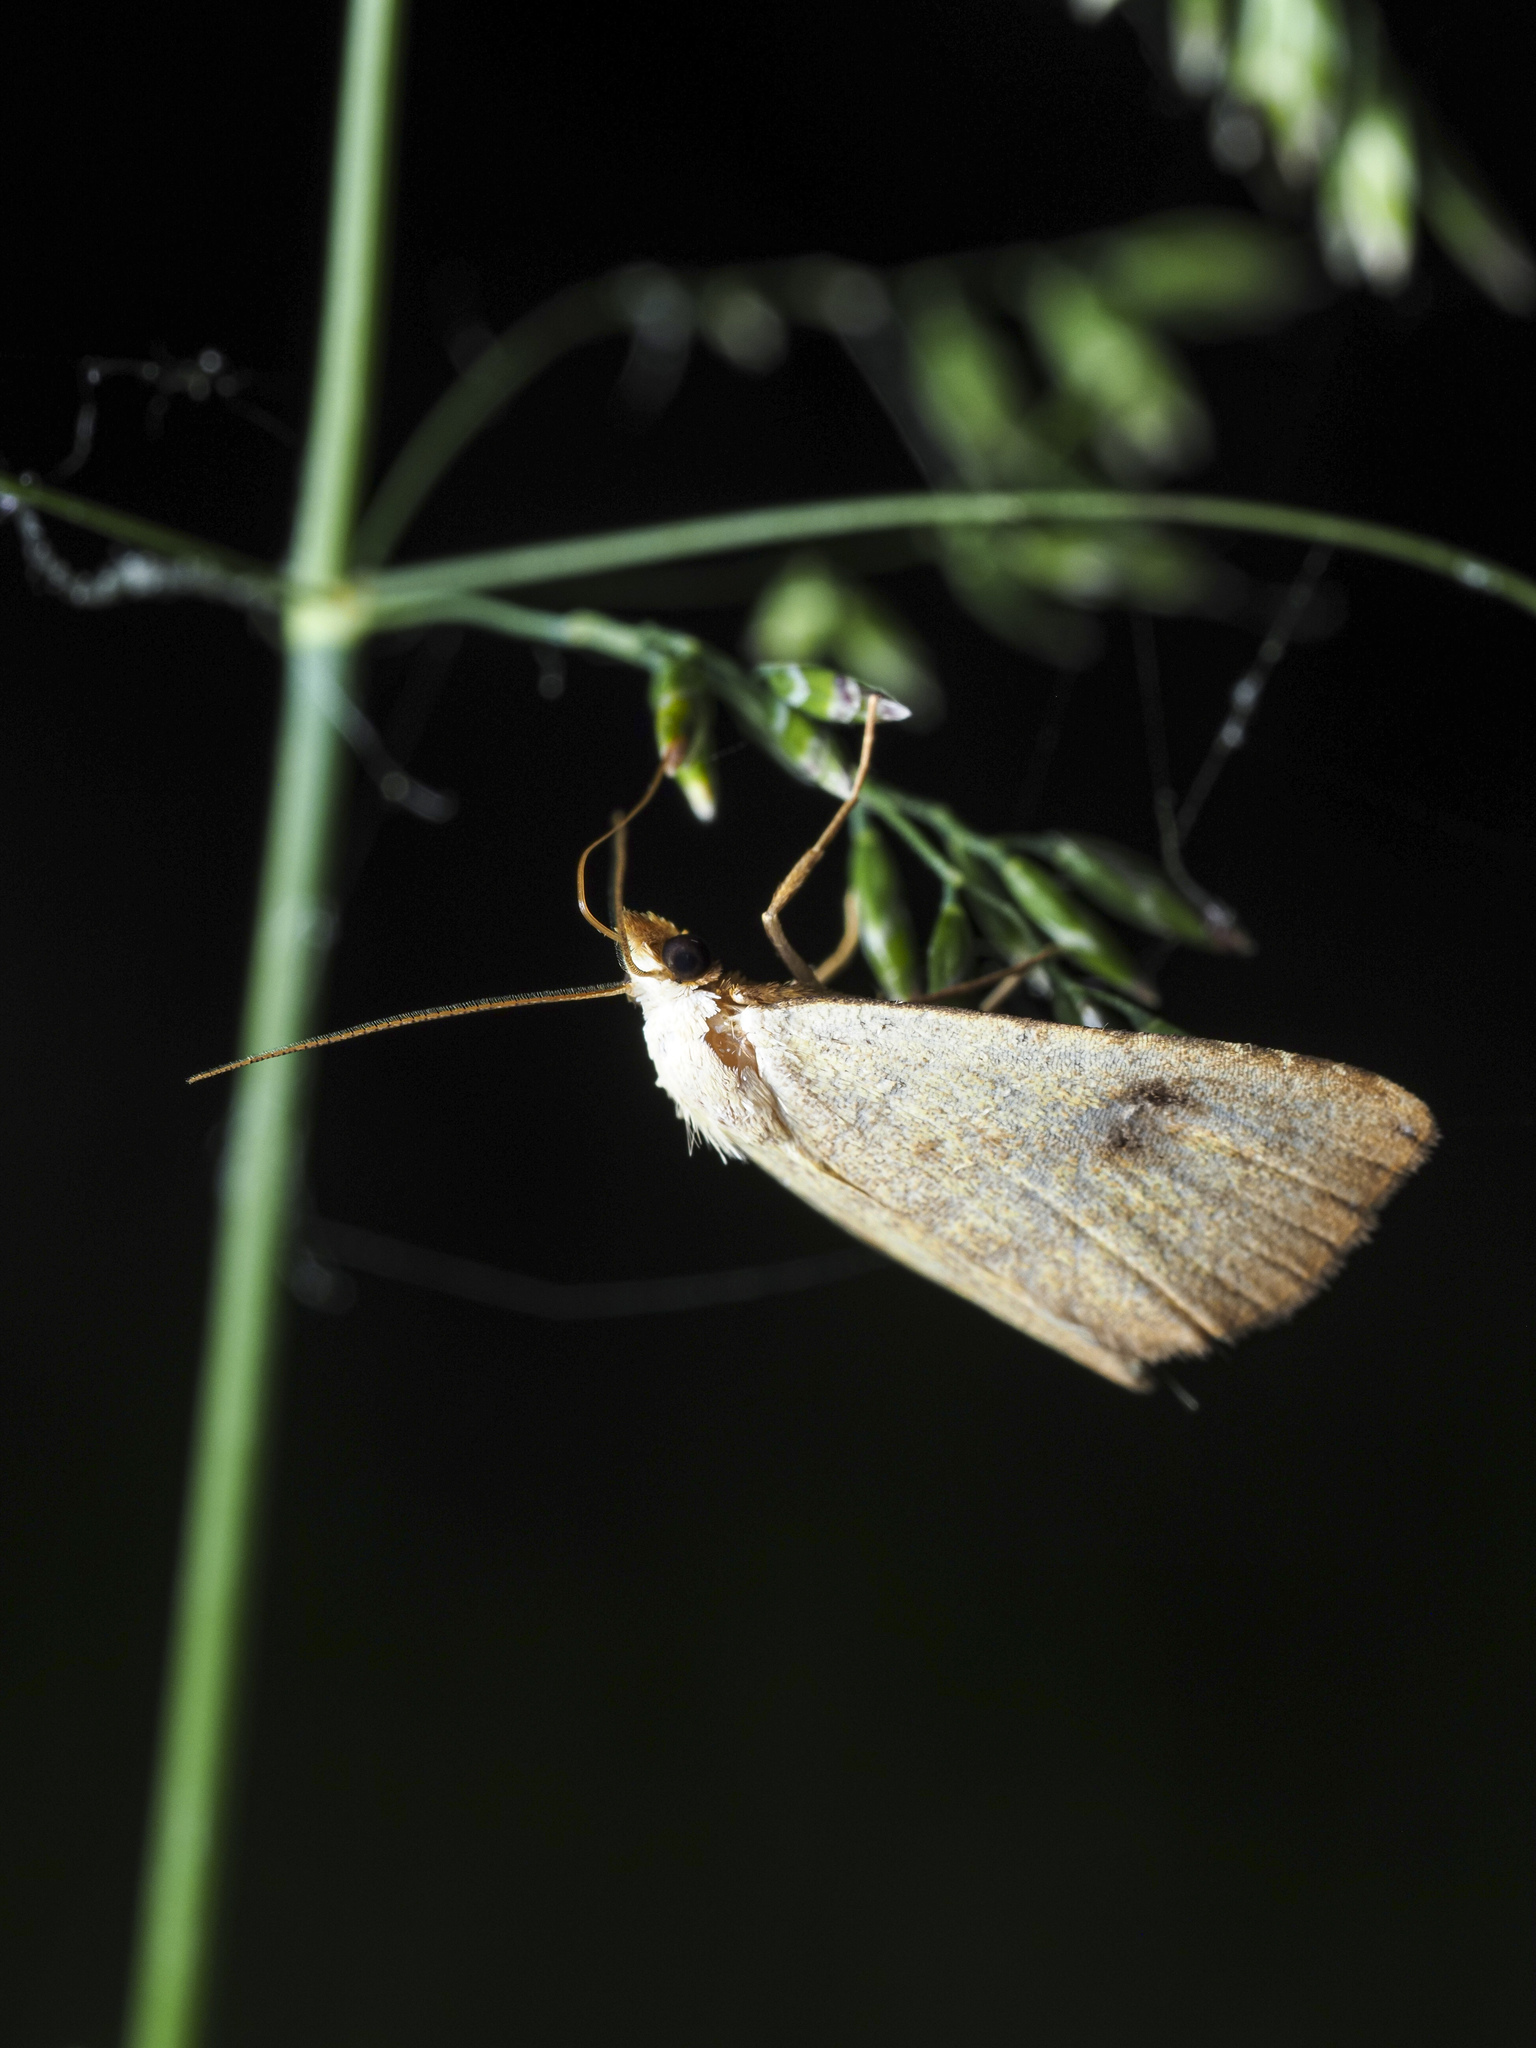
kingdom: Animalia
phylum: Arthropoda
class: Insecta
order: Lepidoptera
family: Erebidae
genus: Rivula
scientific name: Rivula sericealis
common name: Straw dot
